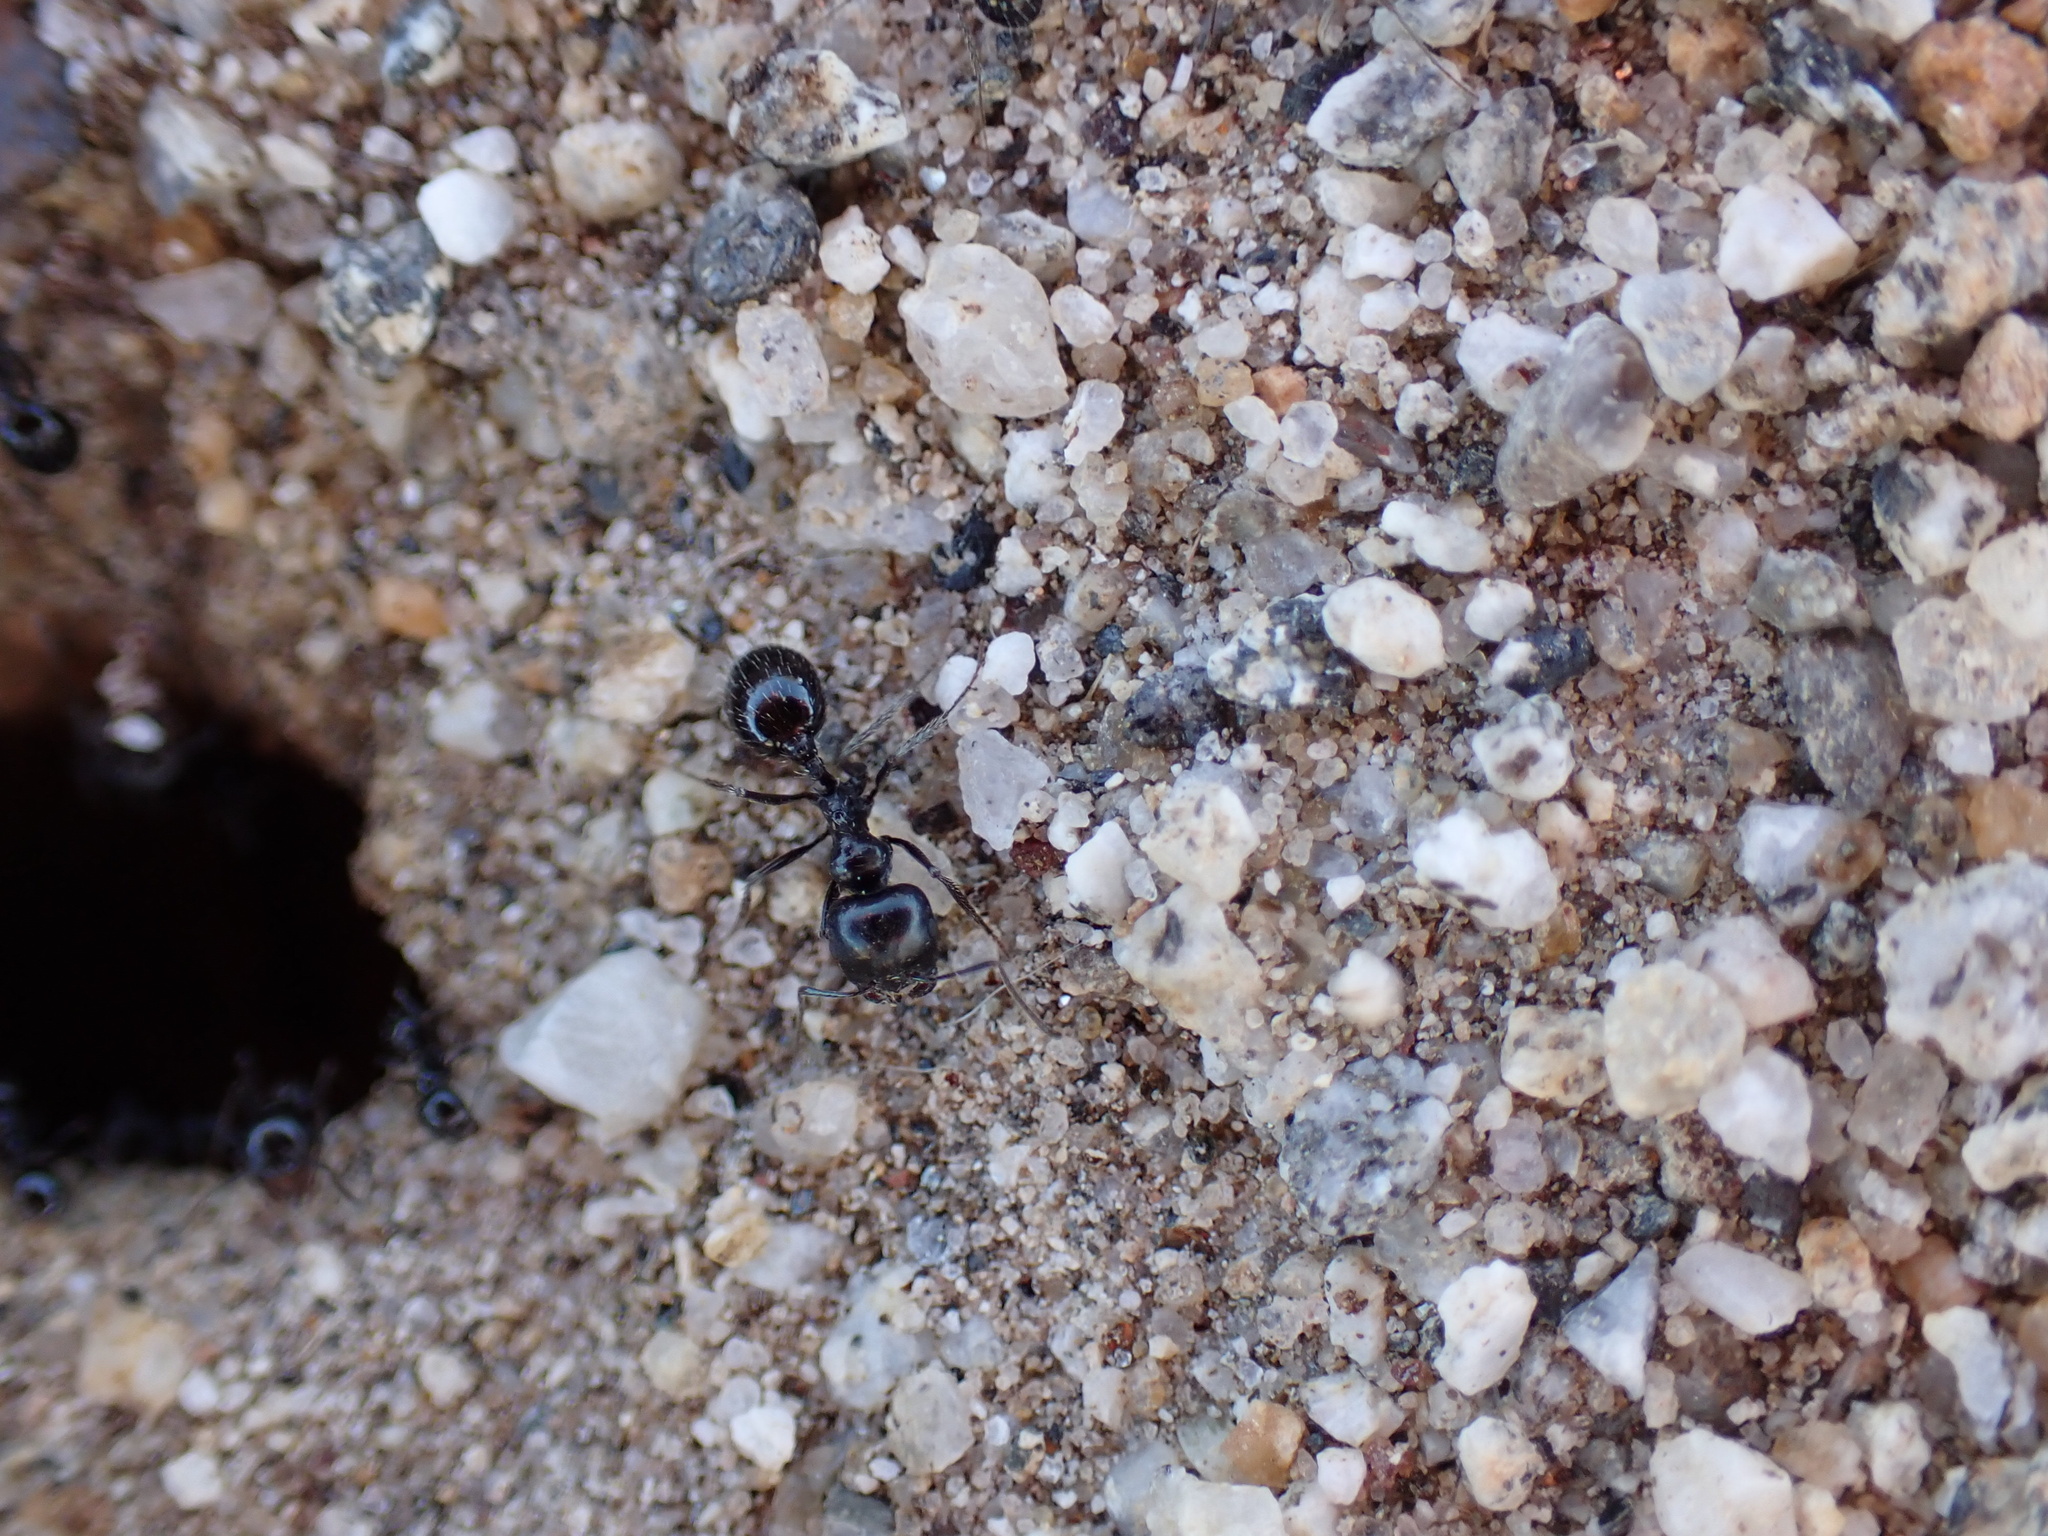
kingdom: Animalia
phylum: Arthropoda
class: Insecta
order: Hymenoptera
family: Formicidae
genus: Messor
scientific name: Messor pergandei
